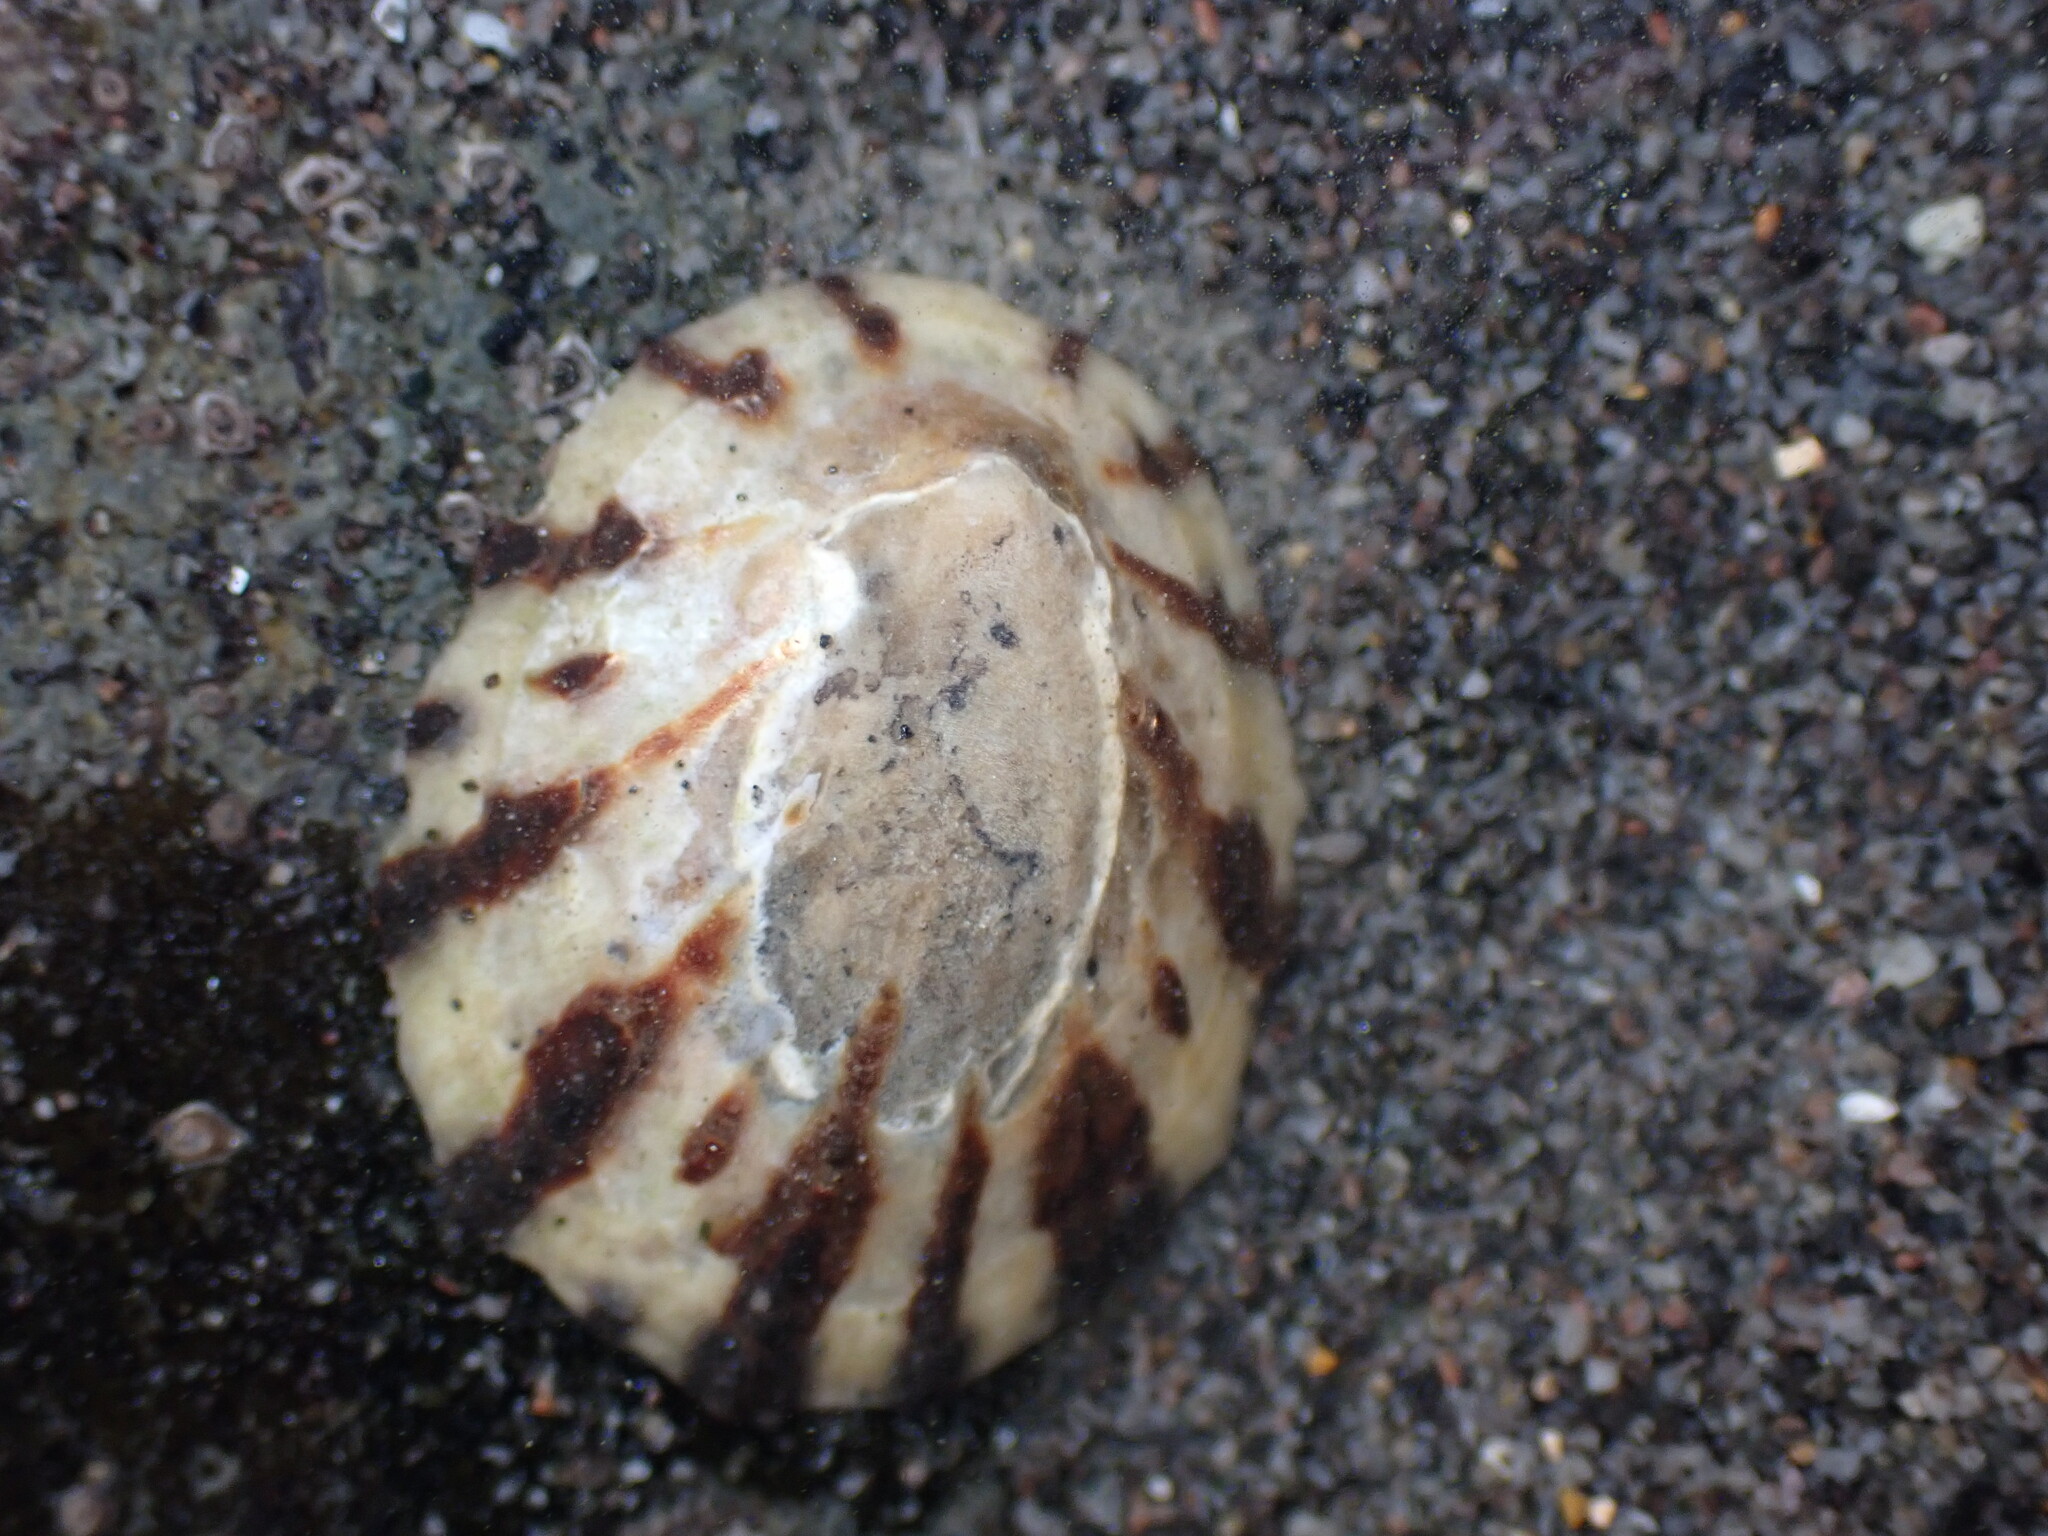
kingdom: Animalia
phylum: Mollusca
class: Gastropoda
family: Nacellidae
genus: Cellana
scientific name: Cellana radians
